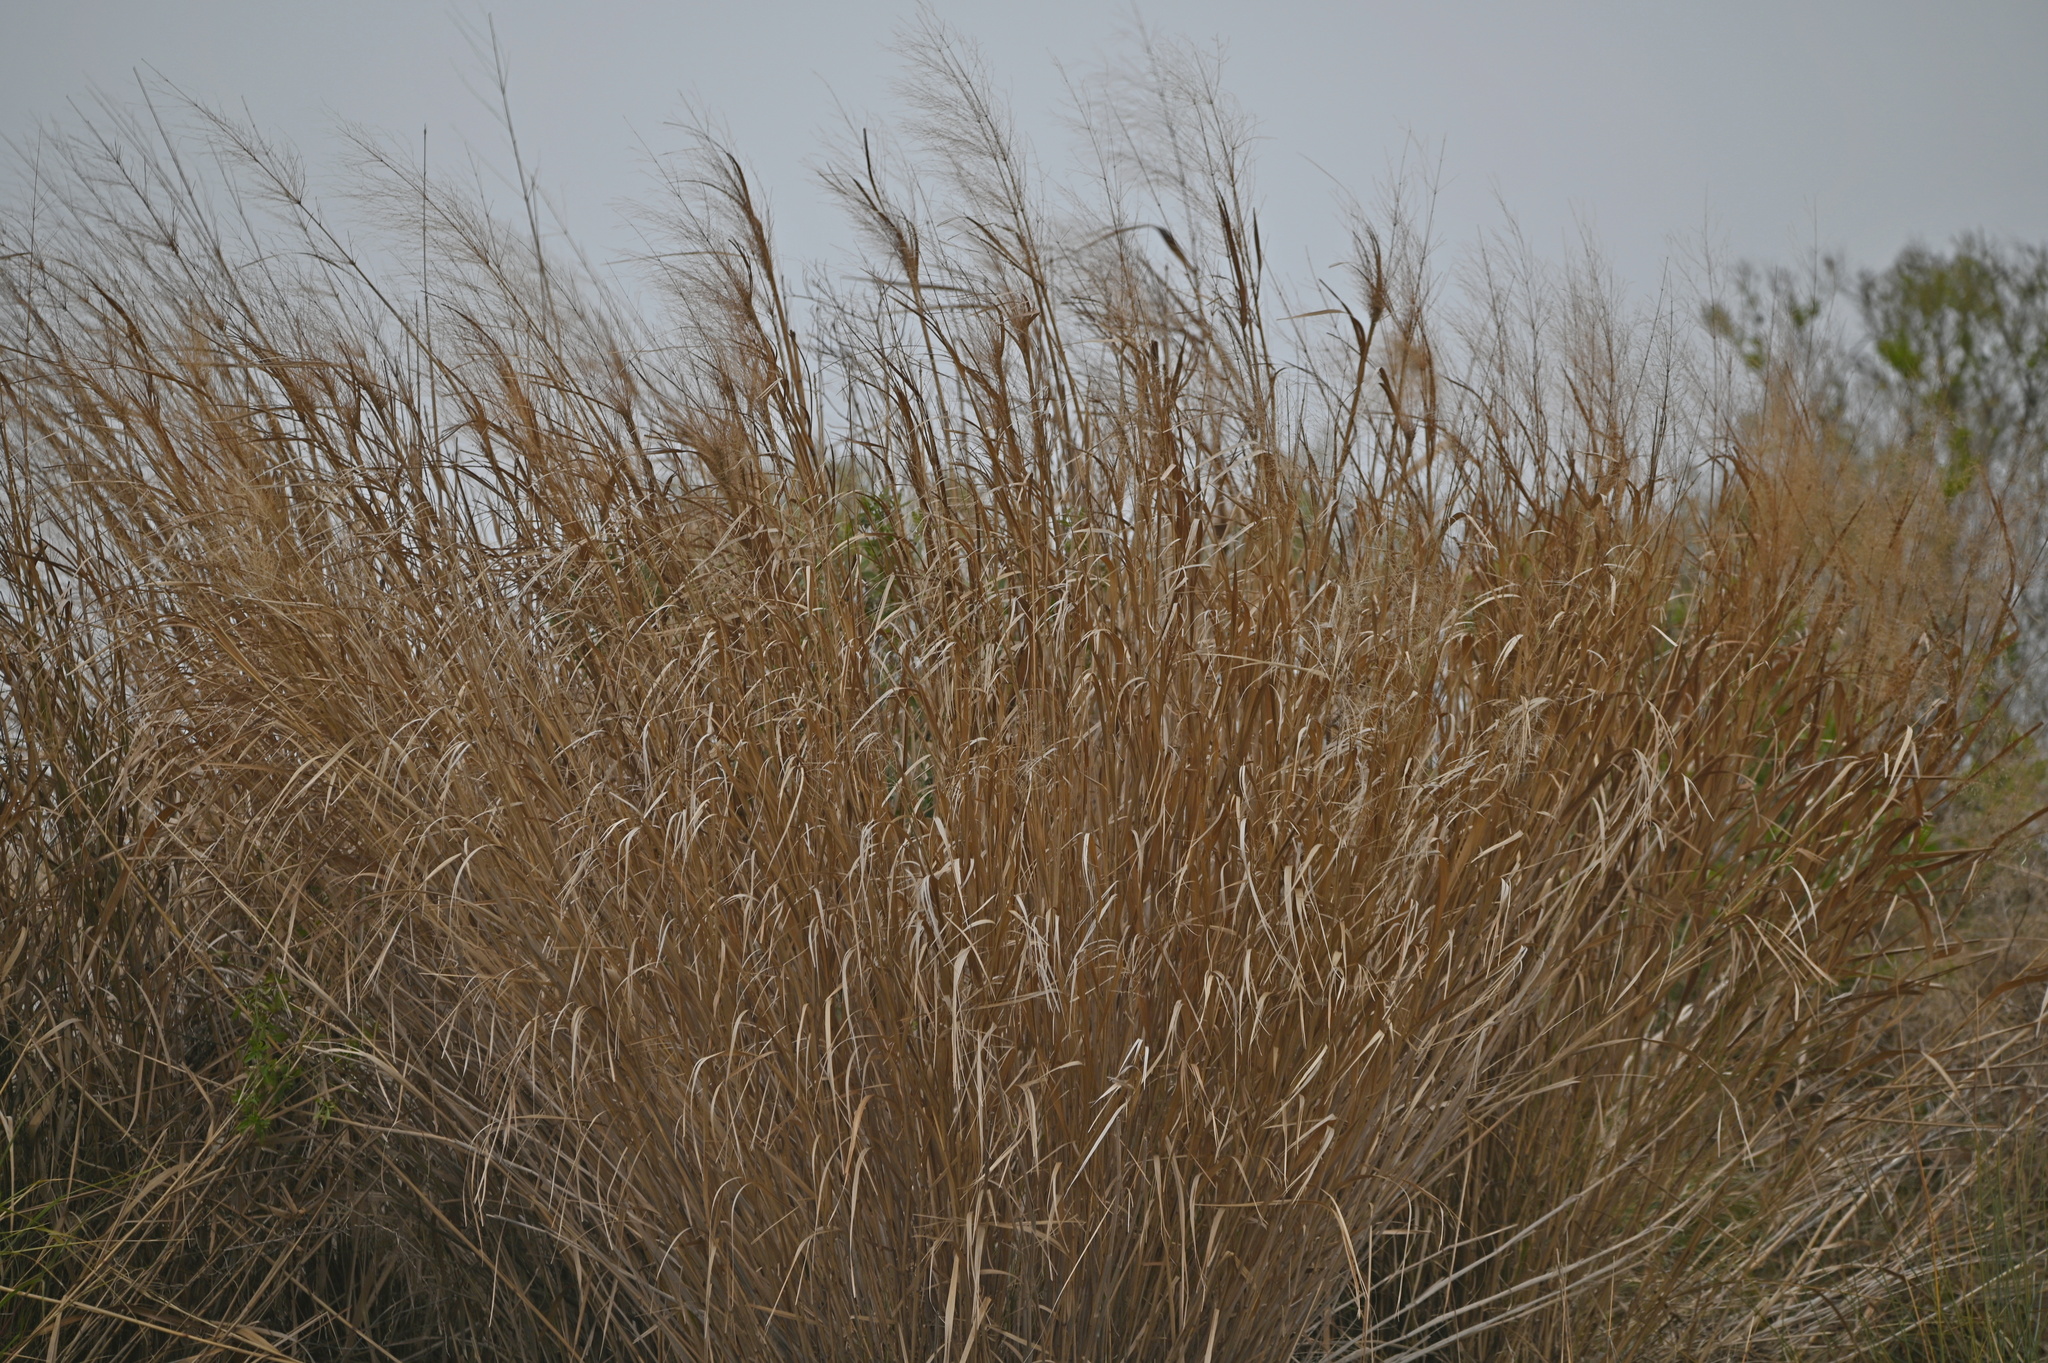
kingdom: Plantae
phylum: Tracheophyta
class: Liliopsida
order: Poales
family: Poaceae
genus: Panicum
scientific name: Panicum virgatum
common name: Switchgrass
